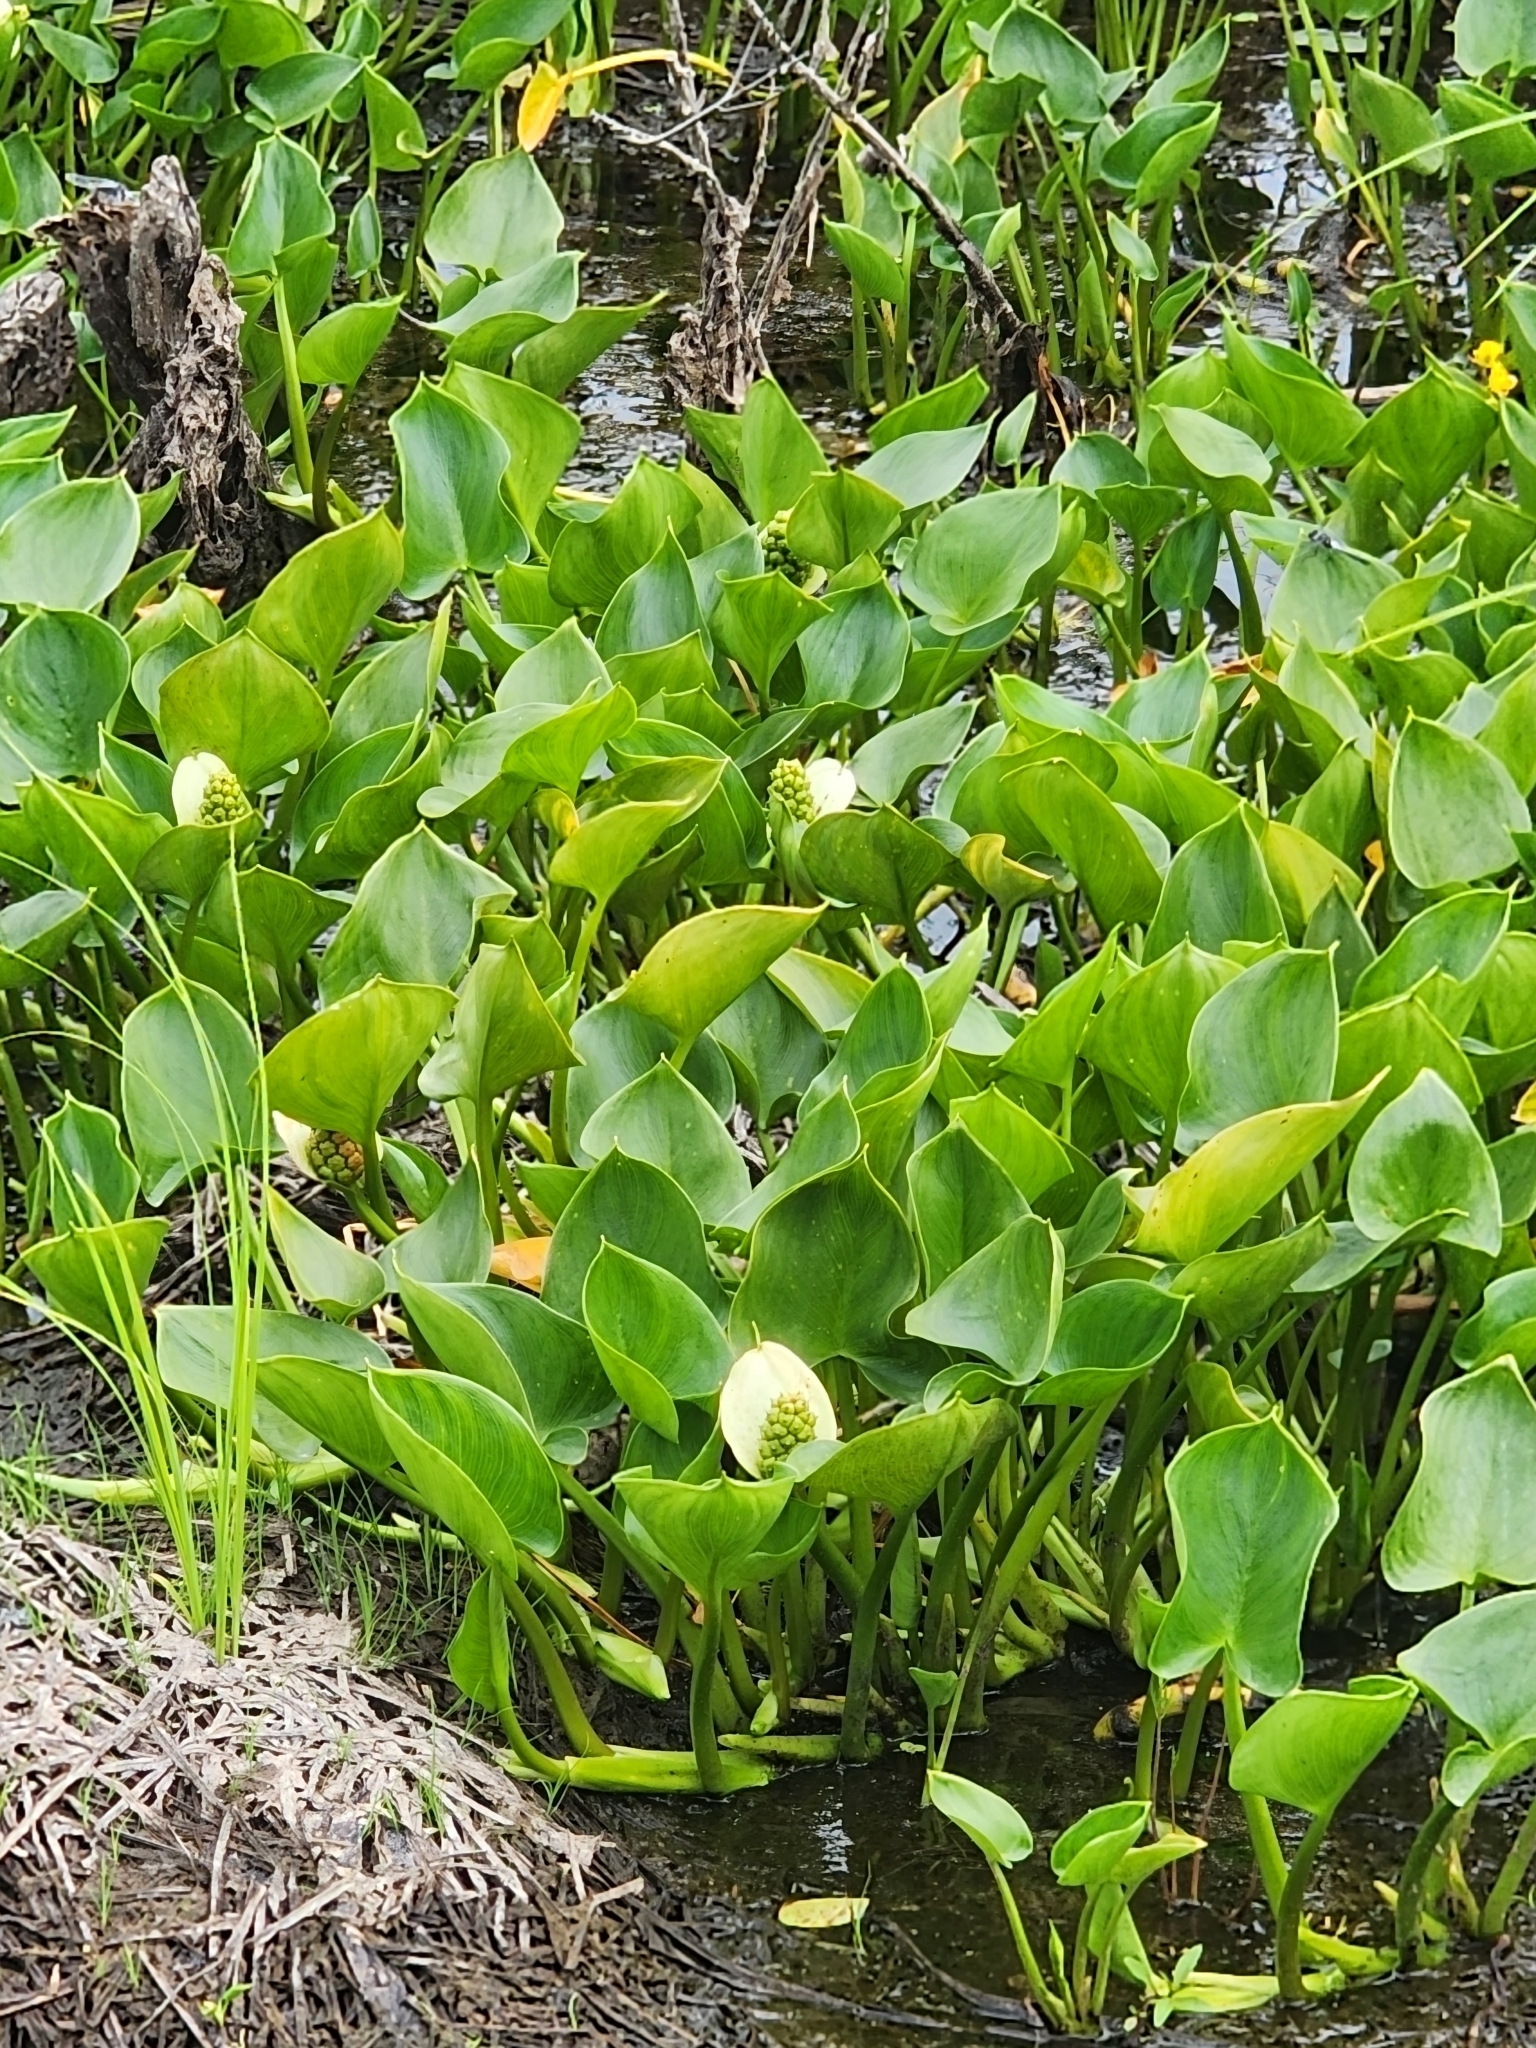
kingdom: Plantae
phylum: Tracheophyta
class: Liliopsida
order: Alismatales
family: Araceae
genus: Calla
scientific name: Calla palustris
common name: Bog arum
